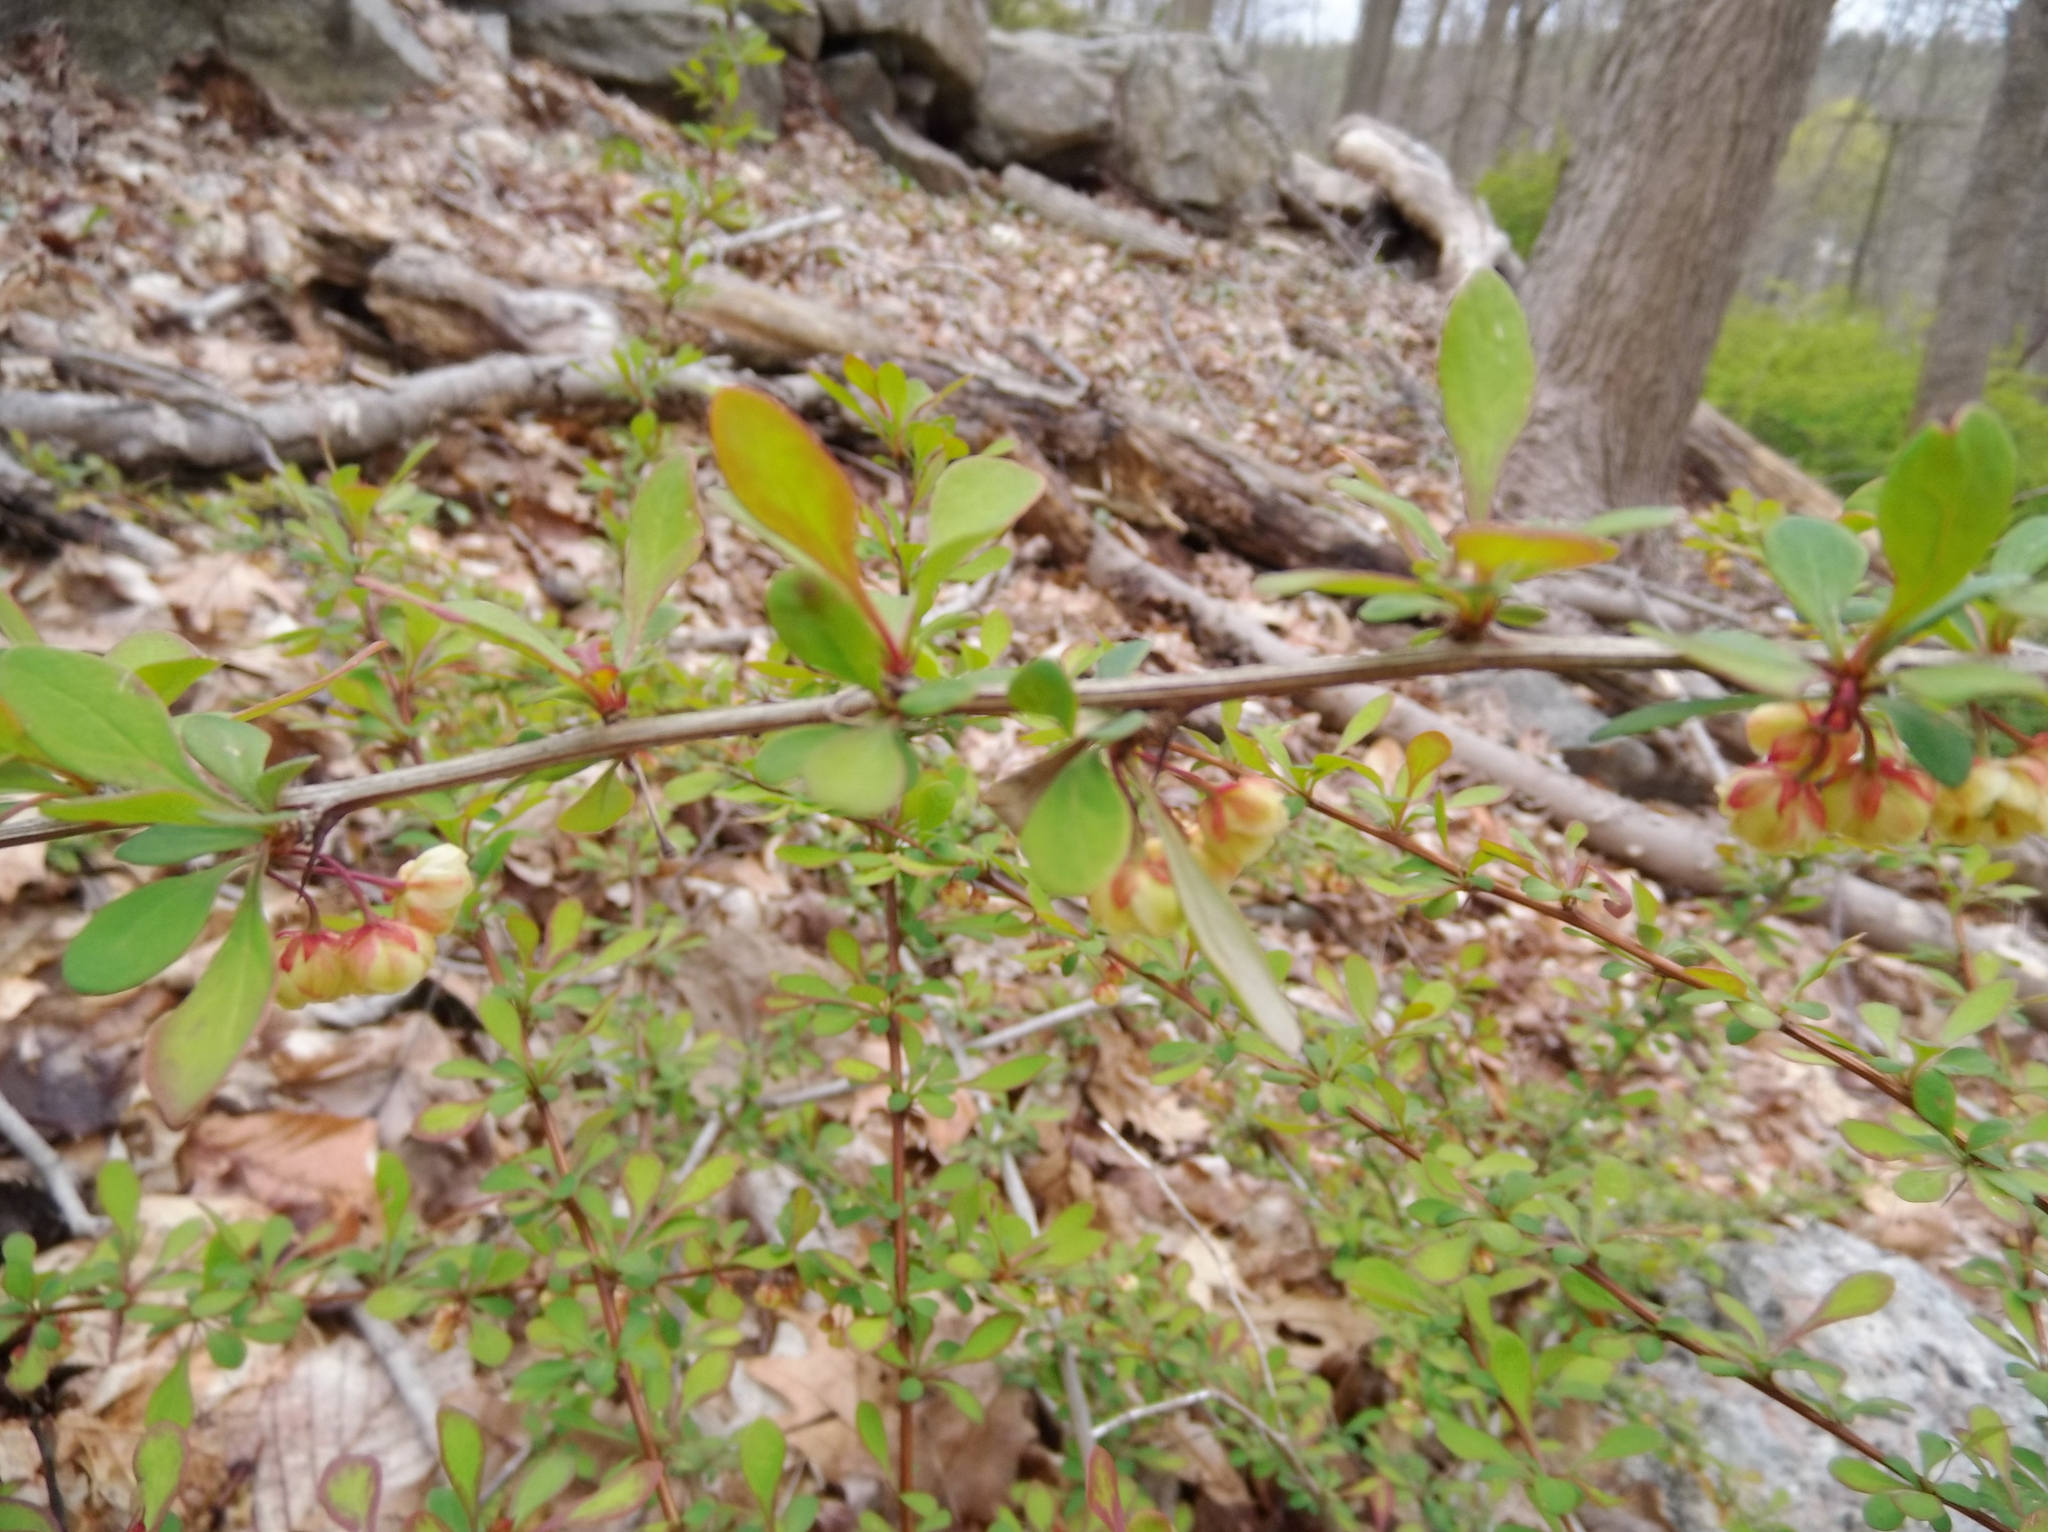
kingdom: Plantae
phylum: Tracheophyta
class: Magnoliopsida
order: Ranunculales
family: Berberidaceae
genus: Berberis
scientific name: Berberis thunbergii
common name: Japanese barberry
